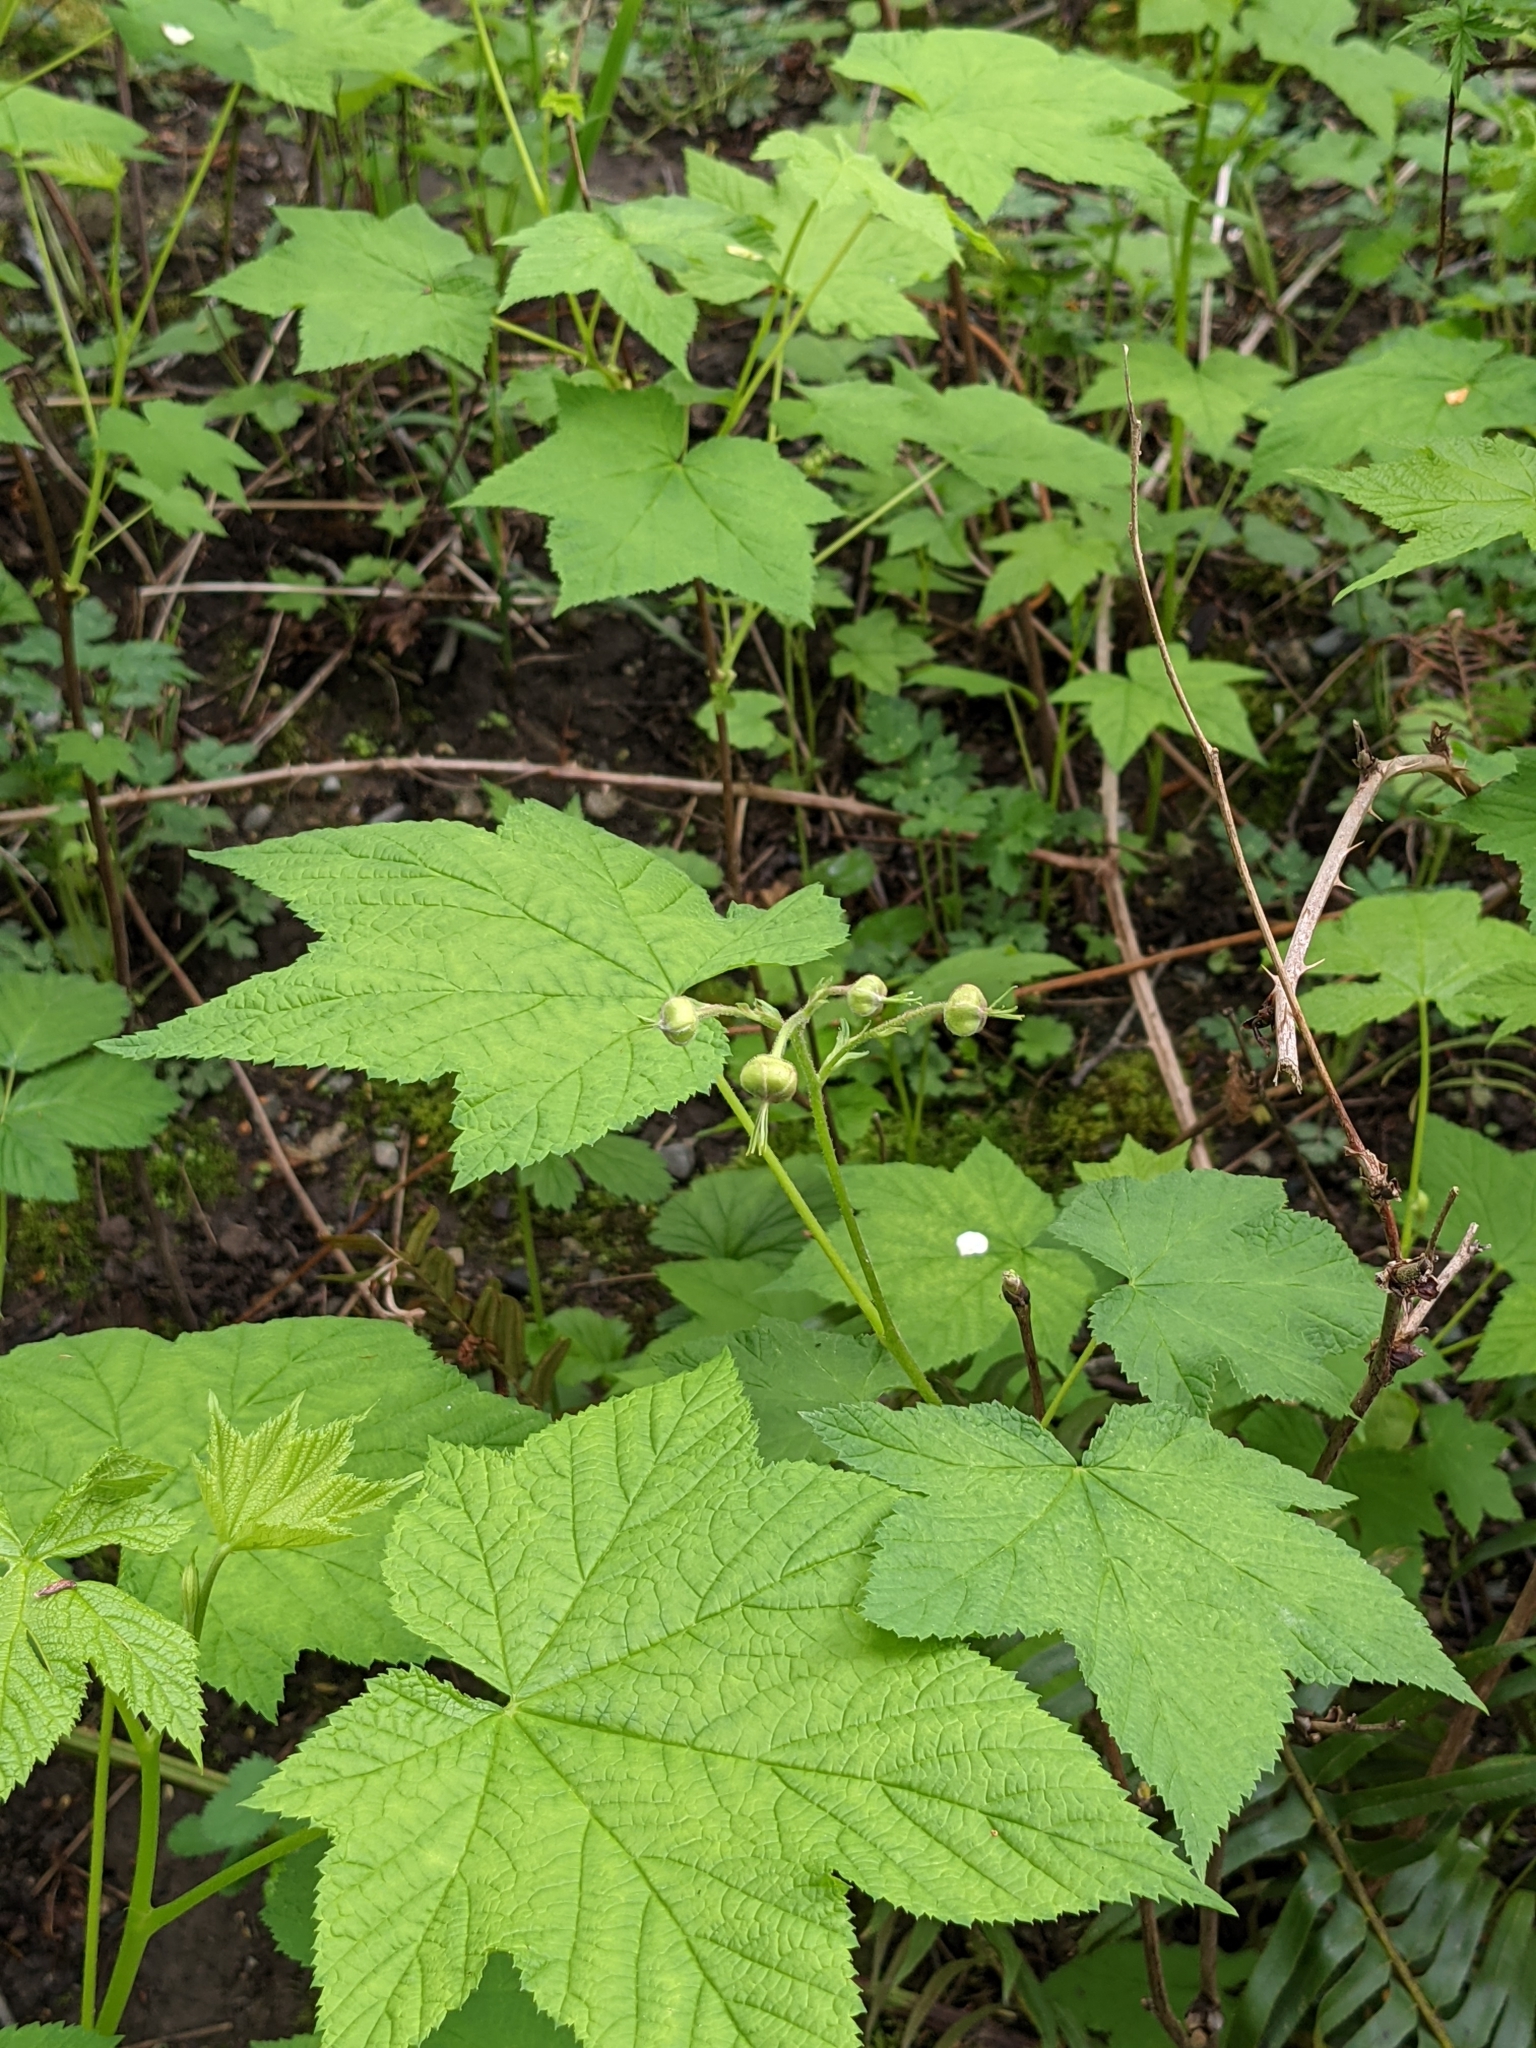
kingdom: Plantae
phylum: Tracheophyta
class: Magnoliopsida
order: Rosales
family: Rosaceae
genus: Rubus
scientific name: Rubus parviflorus
